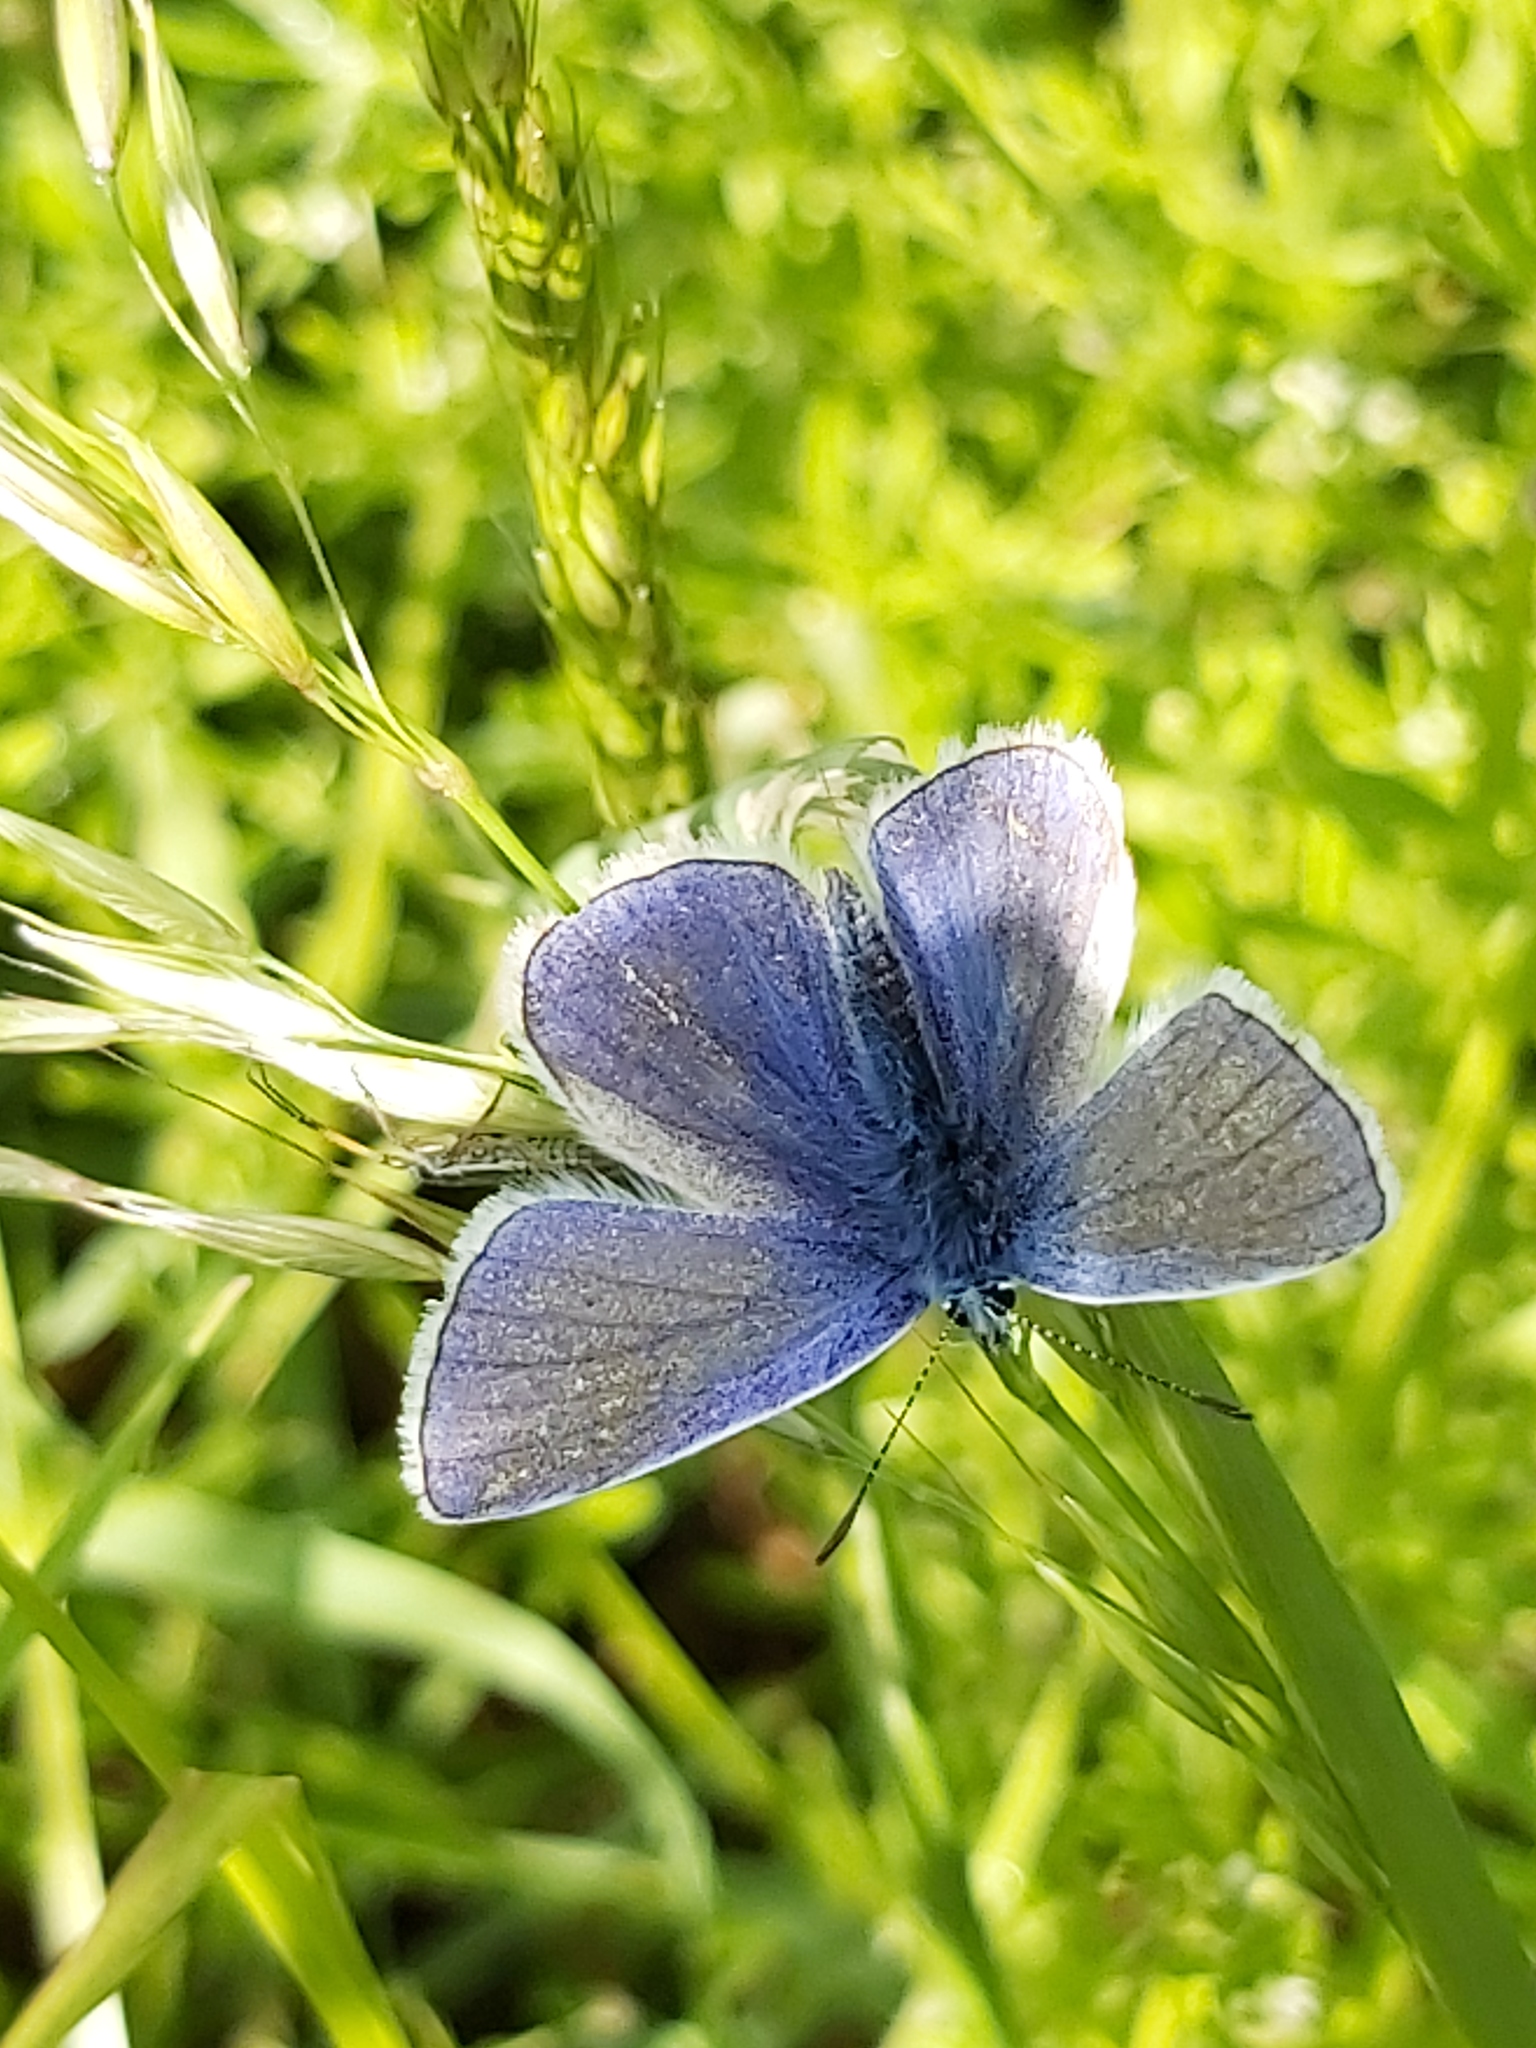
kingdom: Animalia
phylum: Arthropoda
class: Insecta
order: Lepidoptera
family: Lycaenidae
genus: Polyommatus
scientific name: Polyommatus icarus
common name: Common blue
